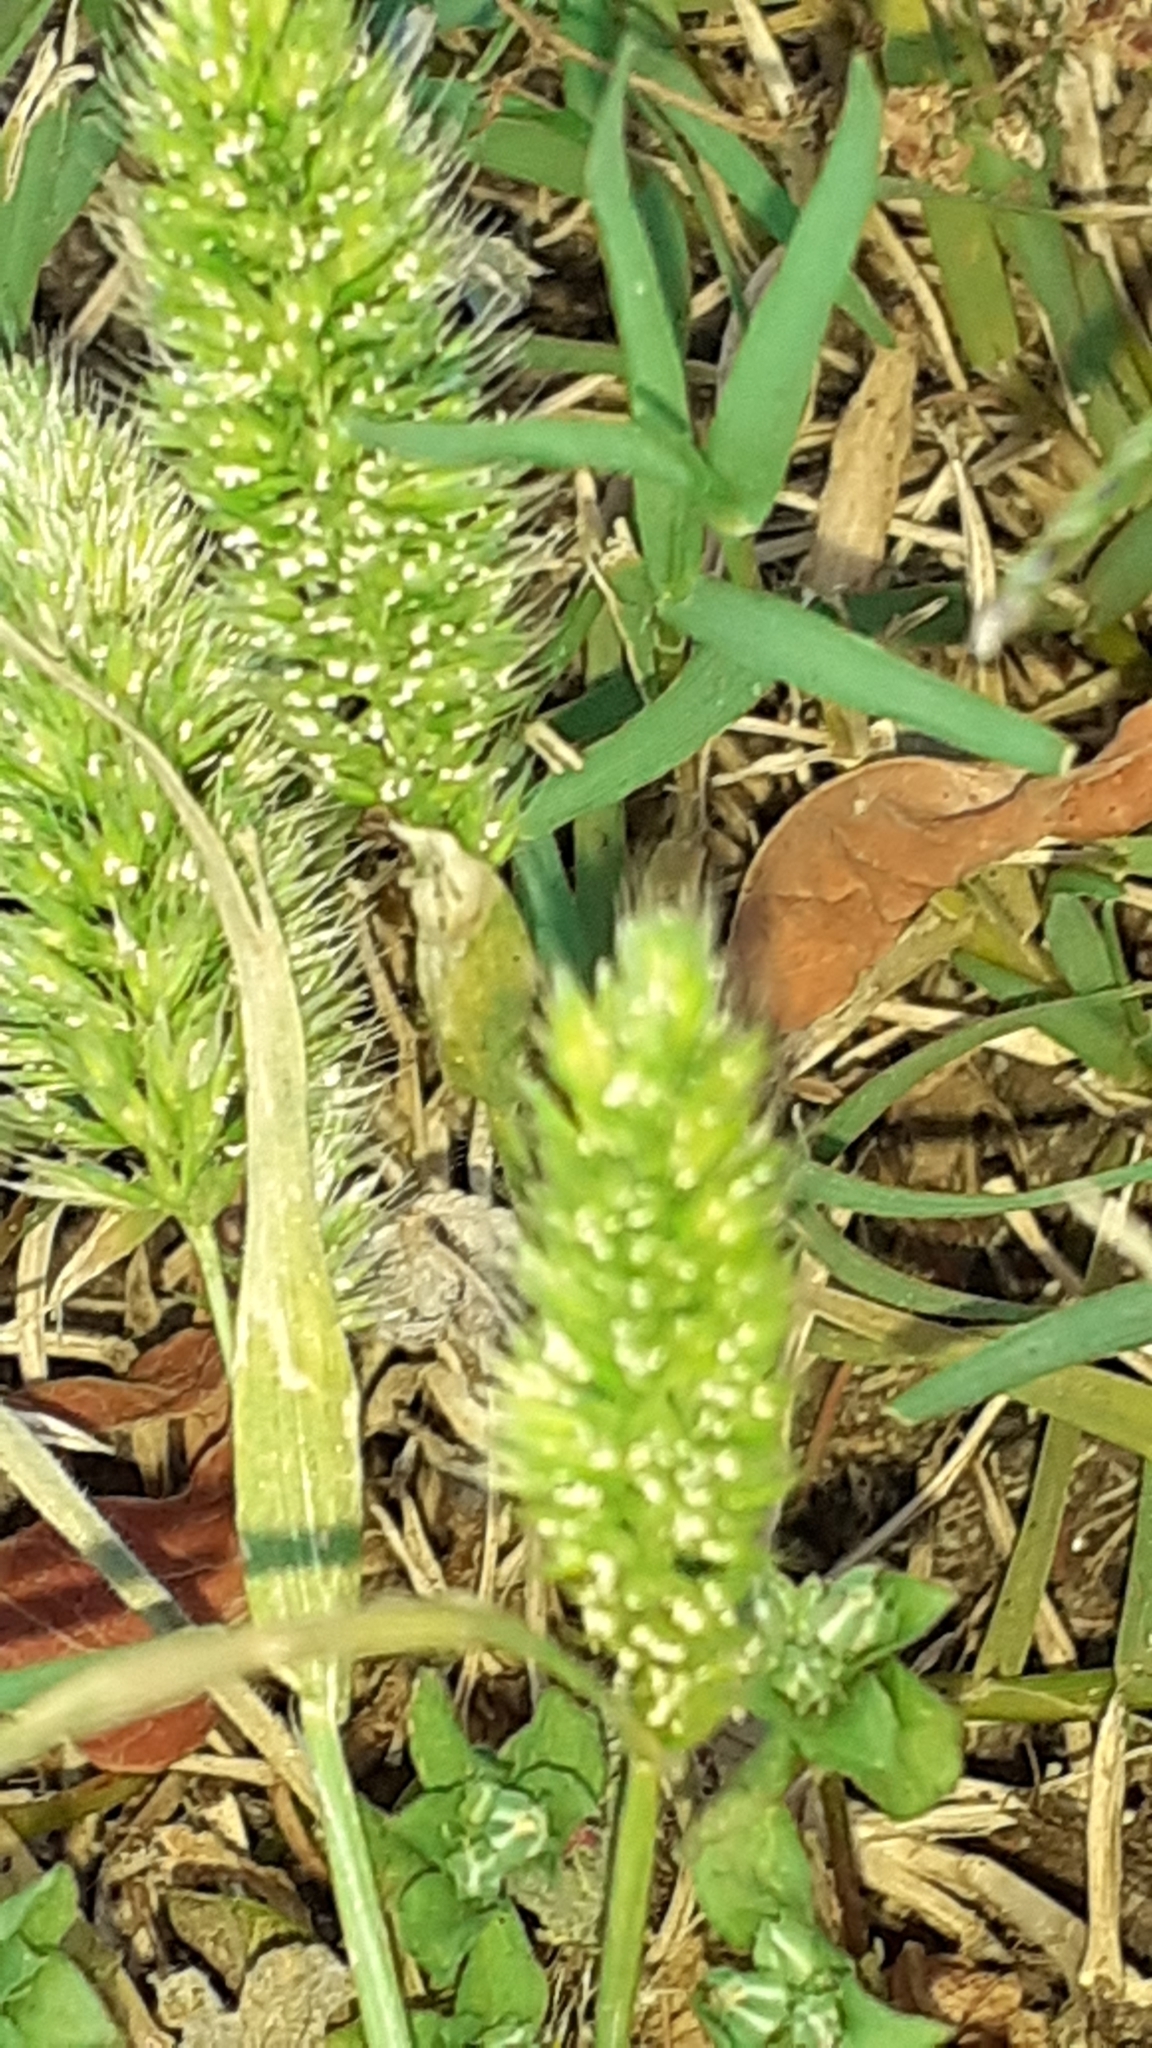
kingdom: Plantae
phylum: Tracheophyta
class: Liliopsida
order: Poales
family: Poaceae
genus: Polypogon
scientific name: Polypogon monspeliensis
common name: Annual rabbitsfoot grass
